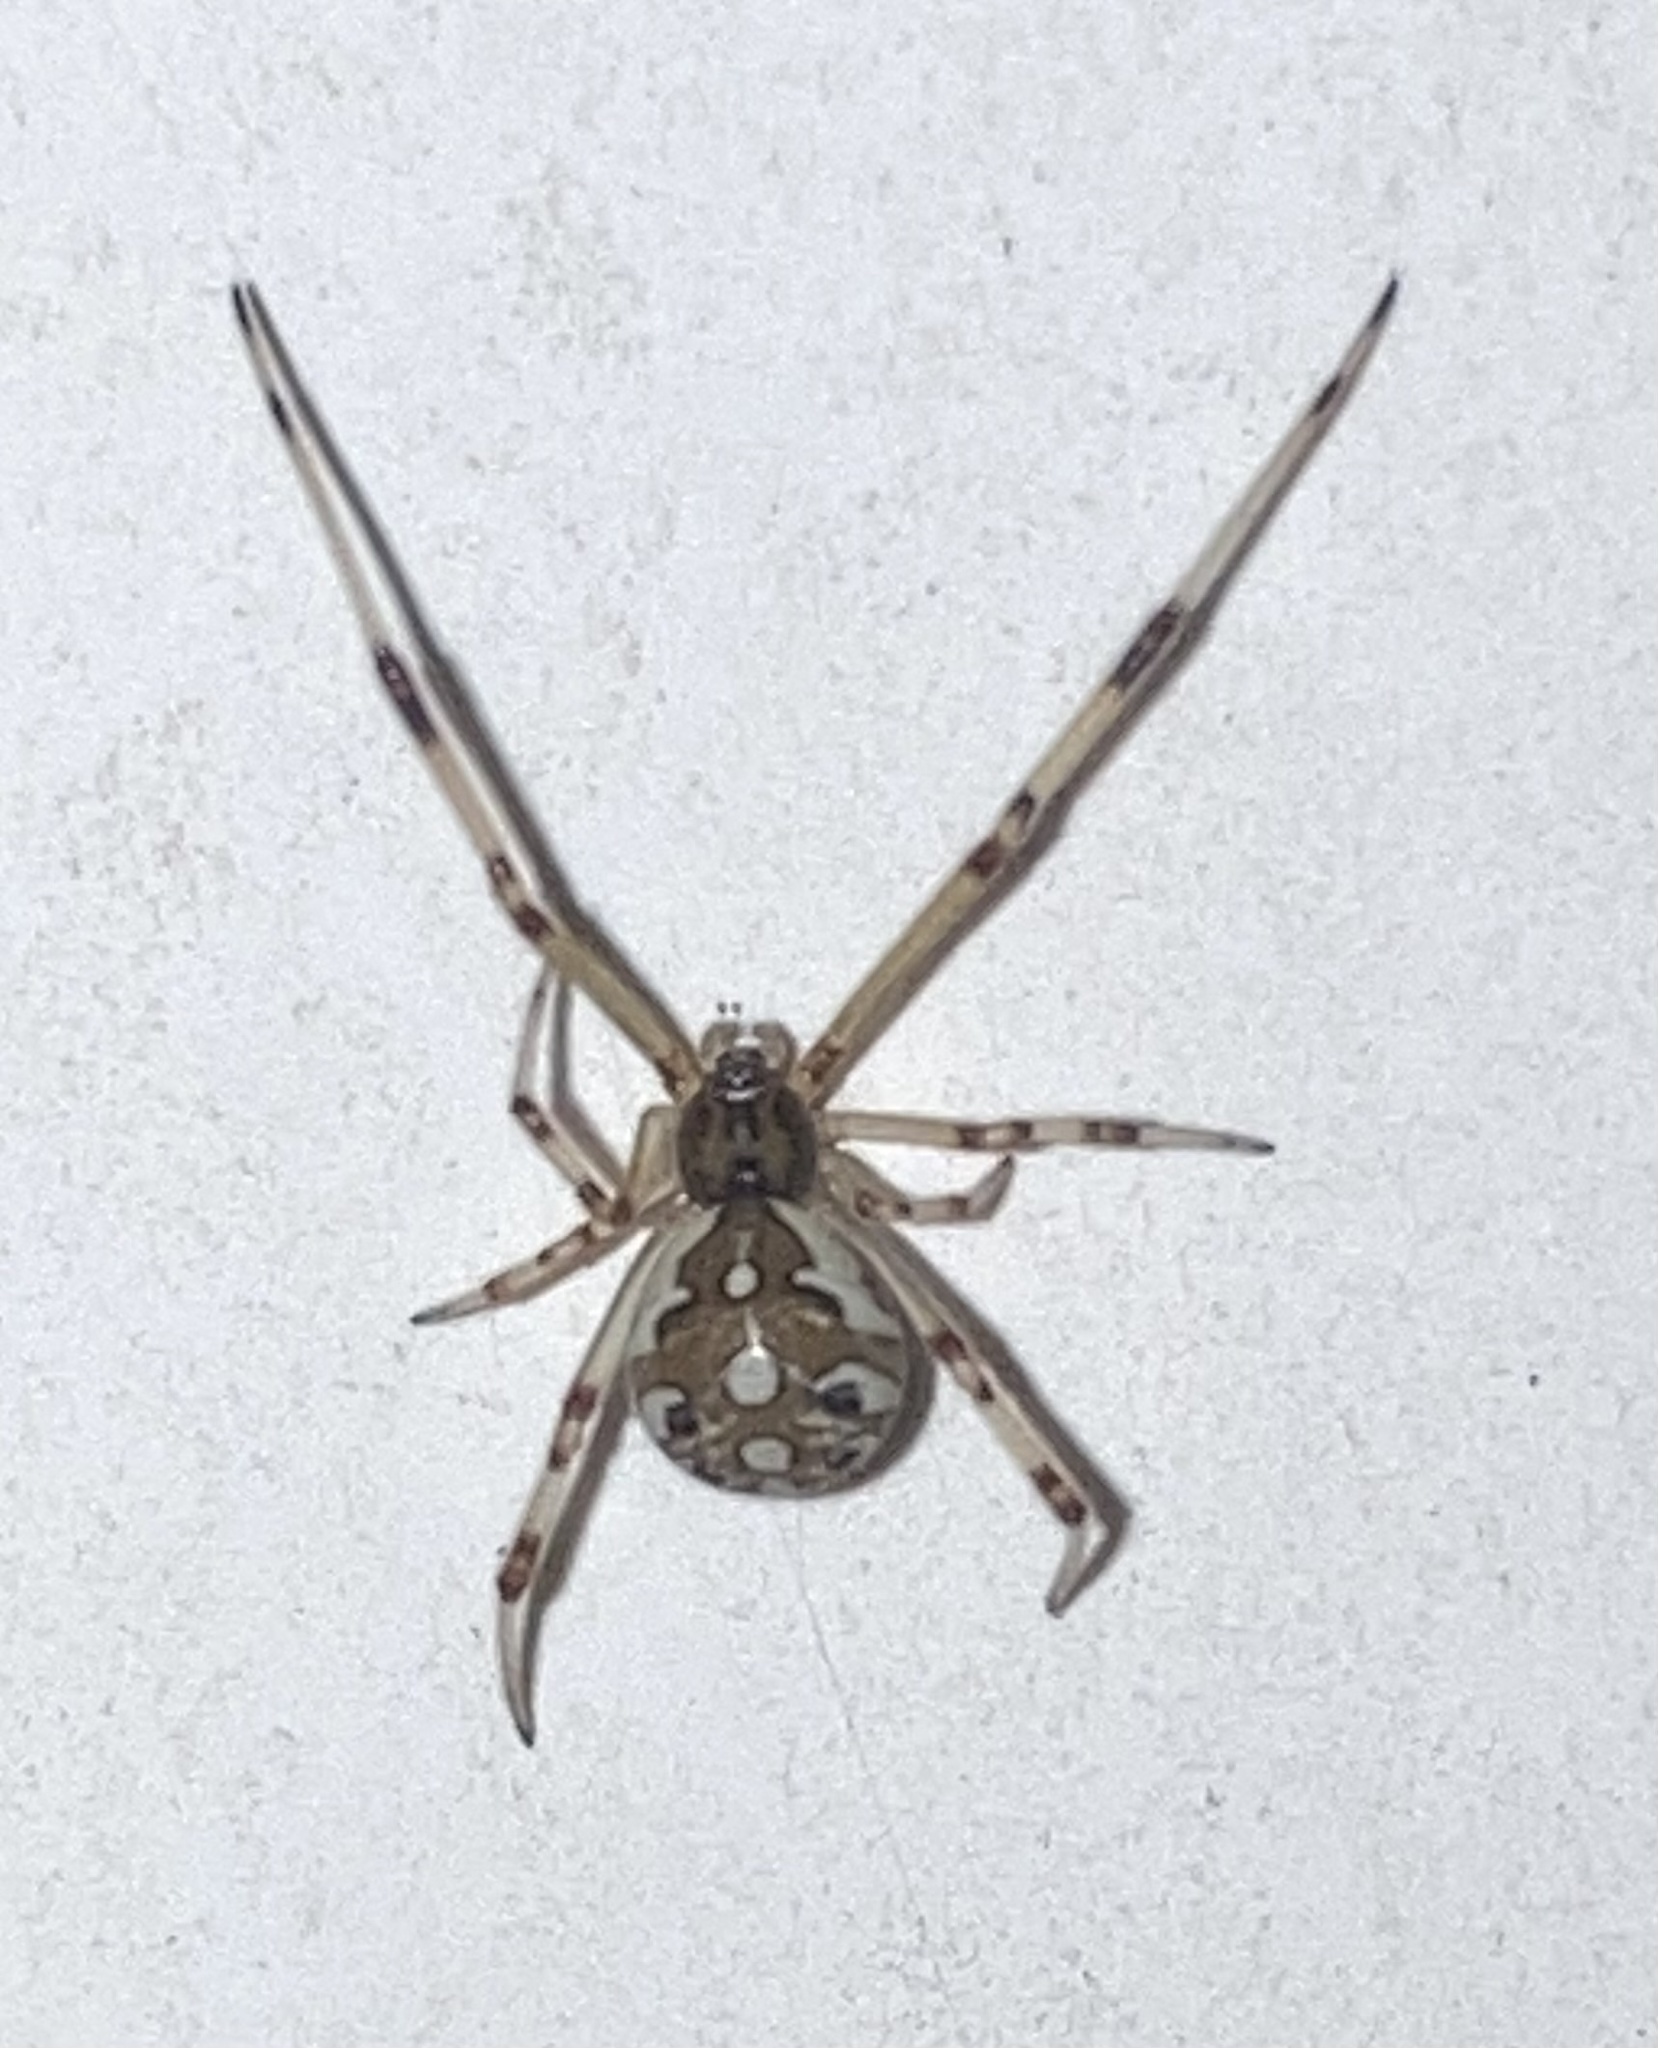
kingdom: Animalia
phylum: Arthropoda
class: Arachnida
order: Araneae
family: Theridiidae
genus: Latrodectus
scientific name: Latrodectus geometricus
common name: Brown widow spider
